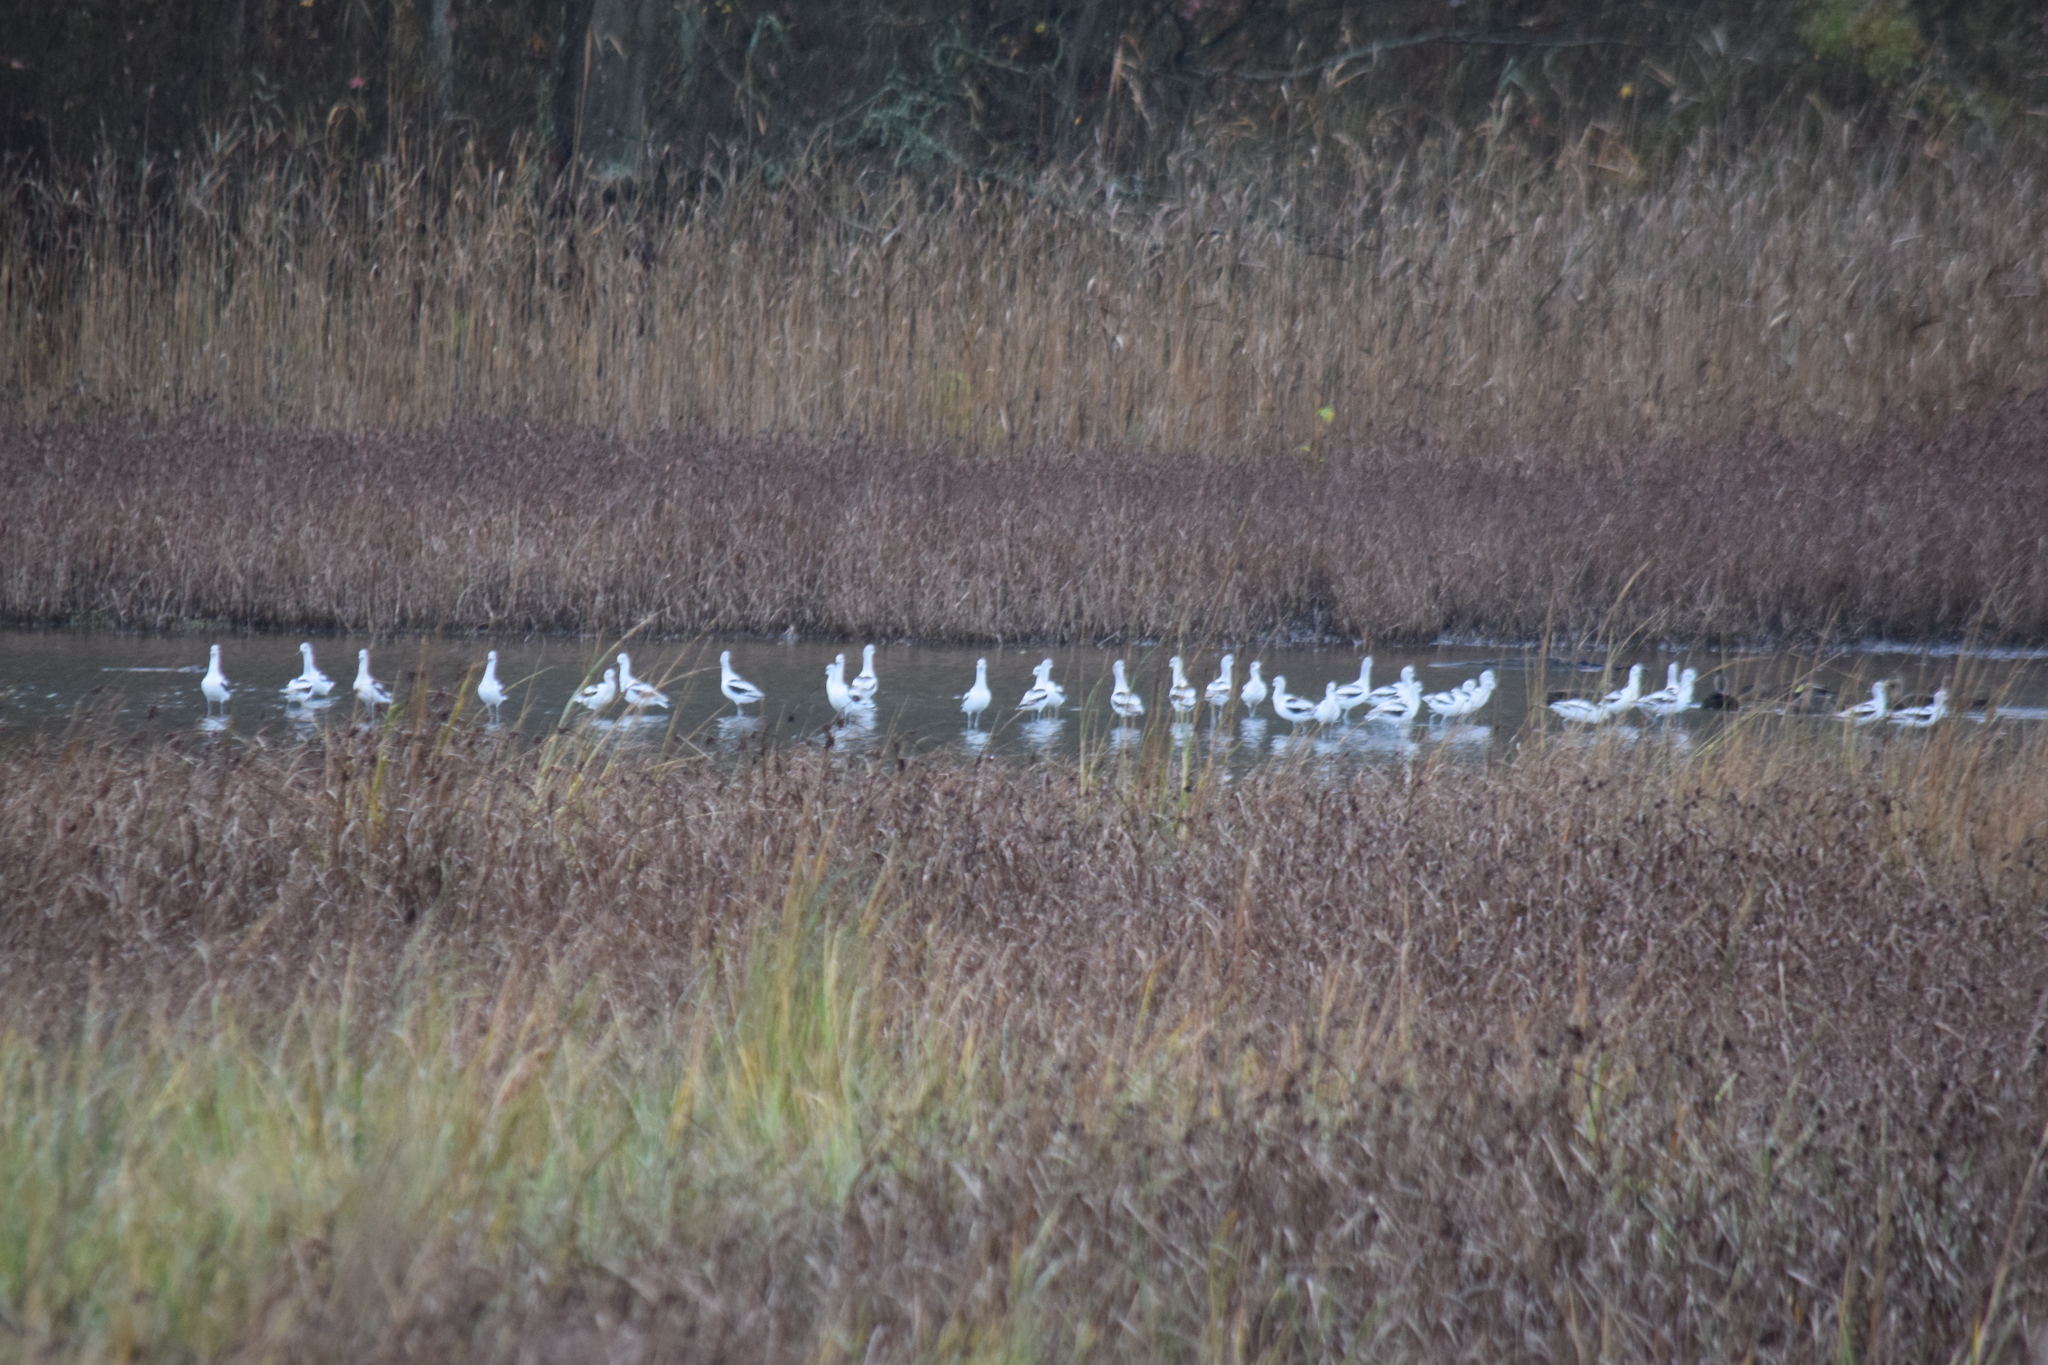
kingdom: Animalia
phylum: Chordata
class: Aves
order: Charadriiformes
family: Recurvirostridae
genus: Recurvirostra
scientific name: Recurvirostra americana
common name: American avocet
